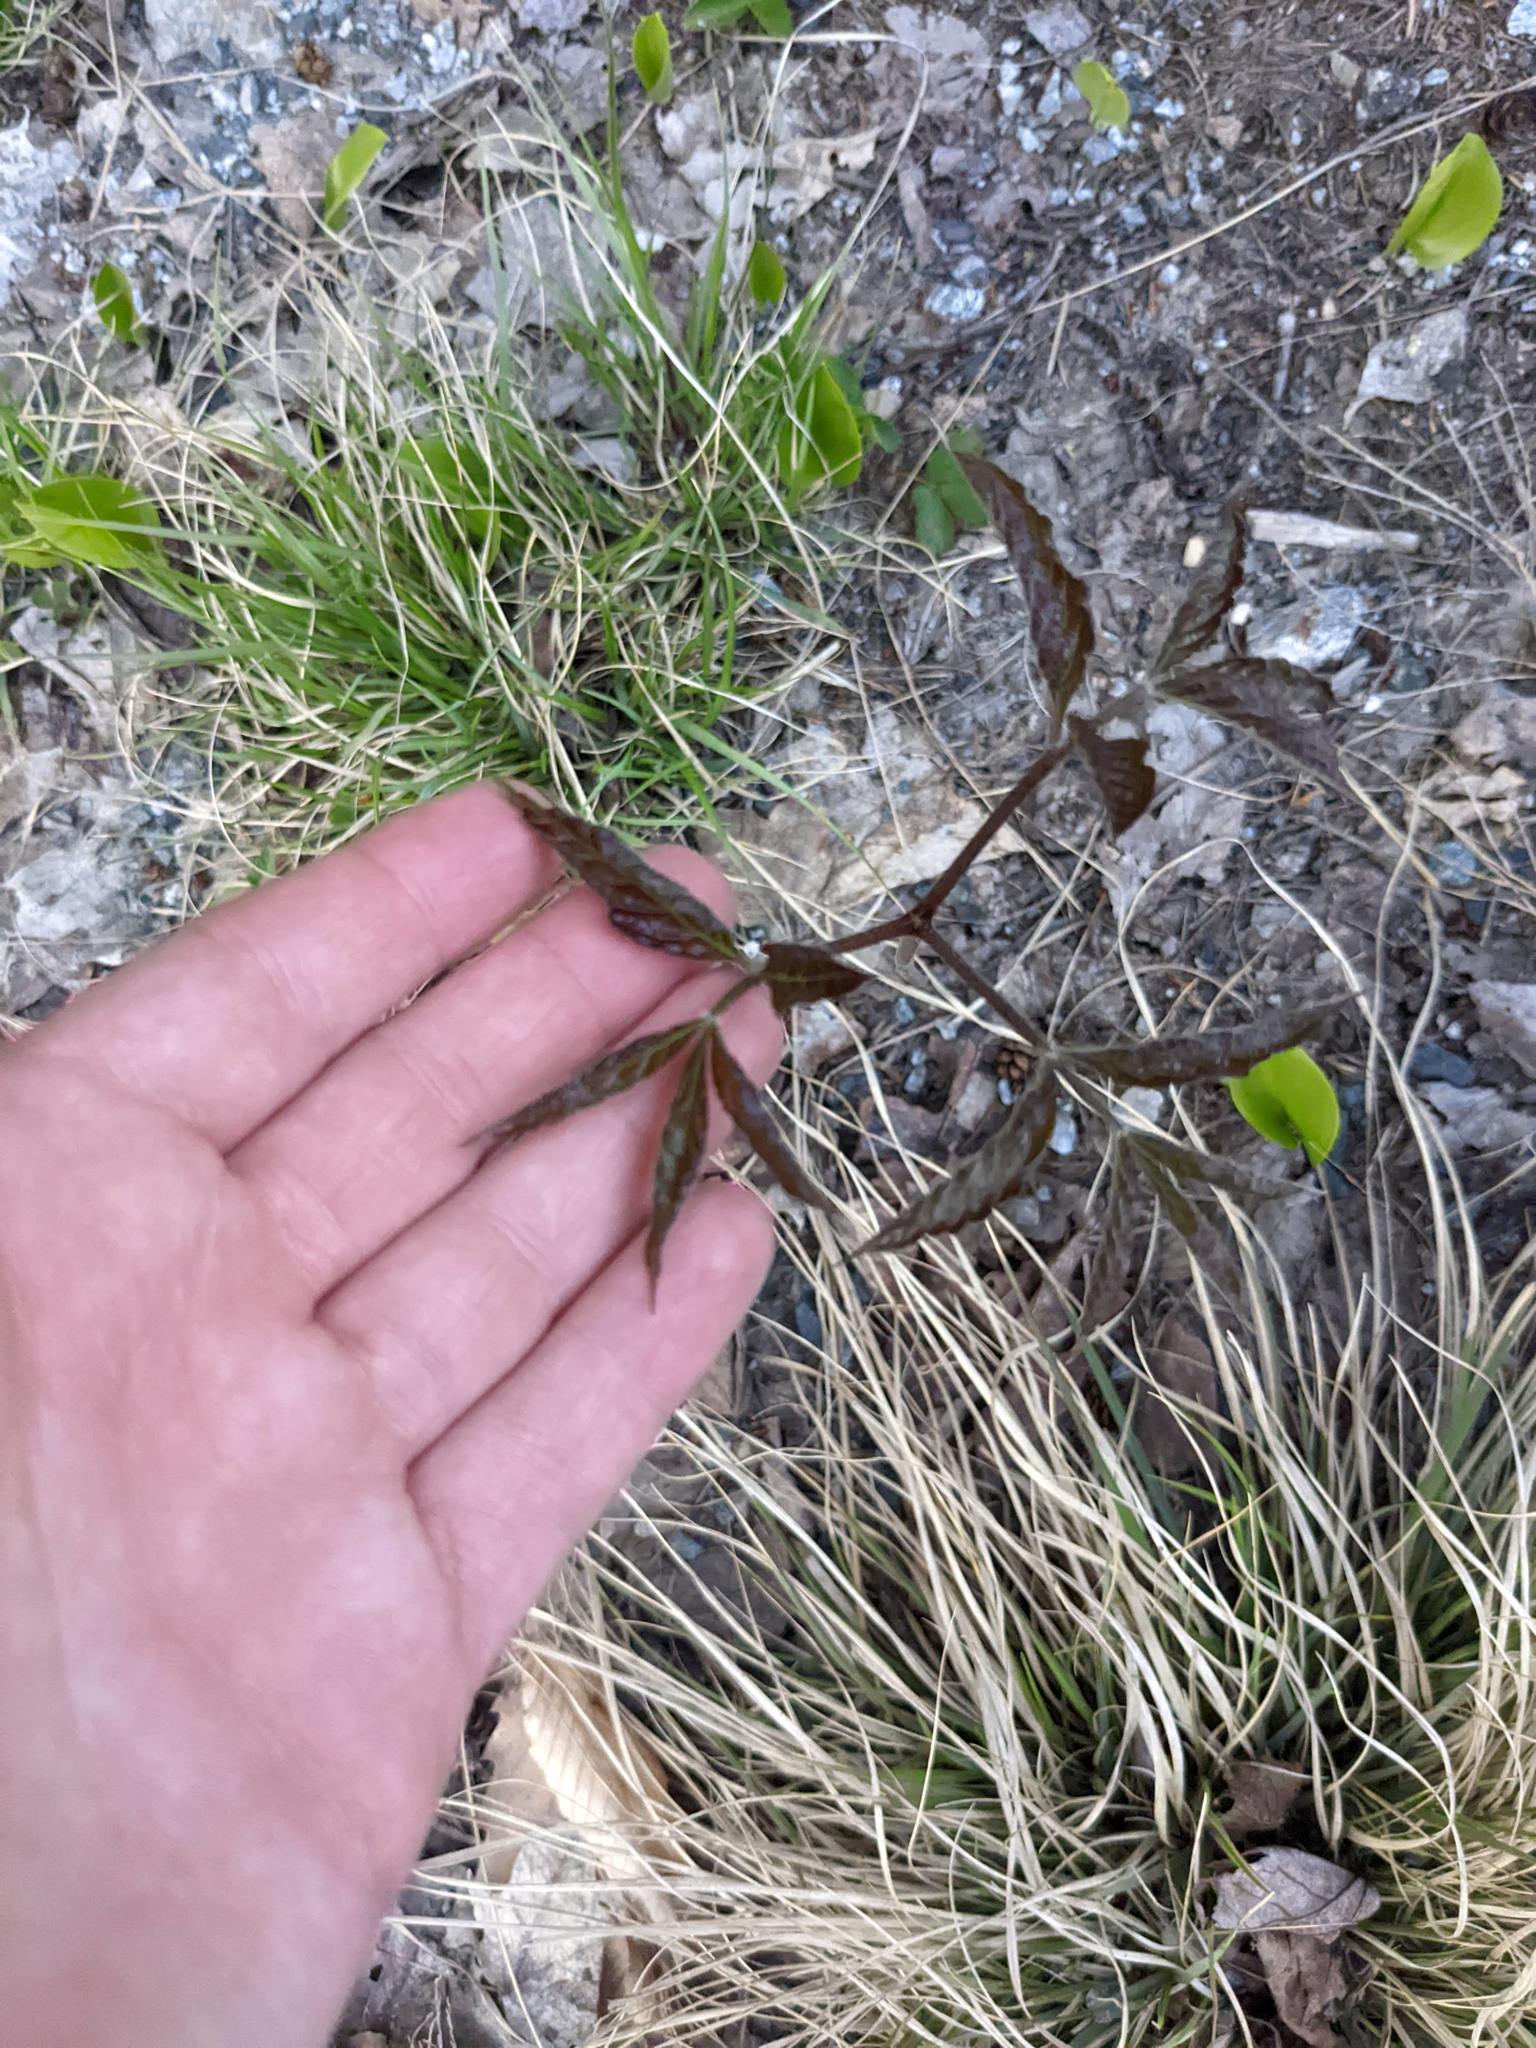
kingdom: Plantae
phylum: Tracheophyta
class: Magnoliopsida
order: Apiales
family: Araliaceae
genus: Aralia
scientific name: Aralia nudicaulis
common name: Wild sarsaparilla
